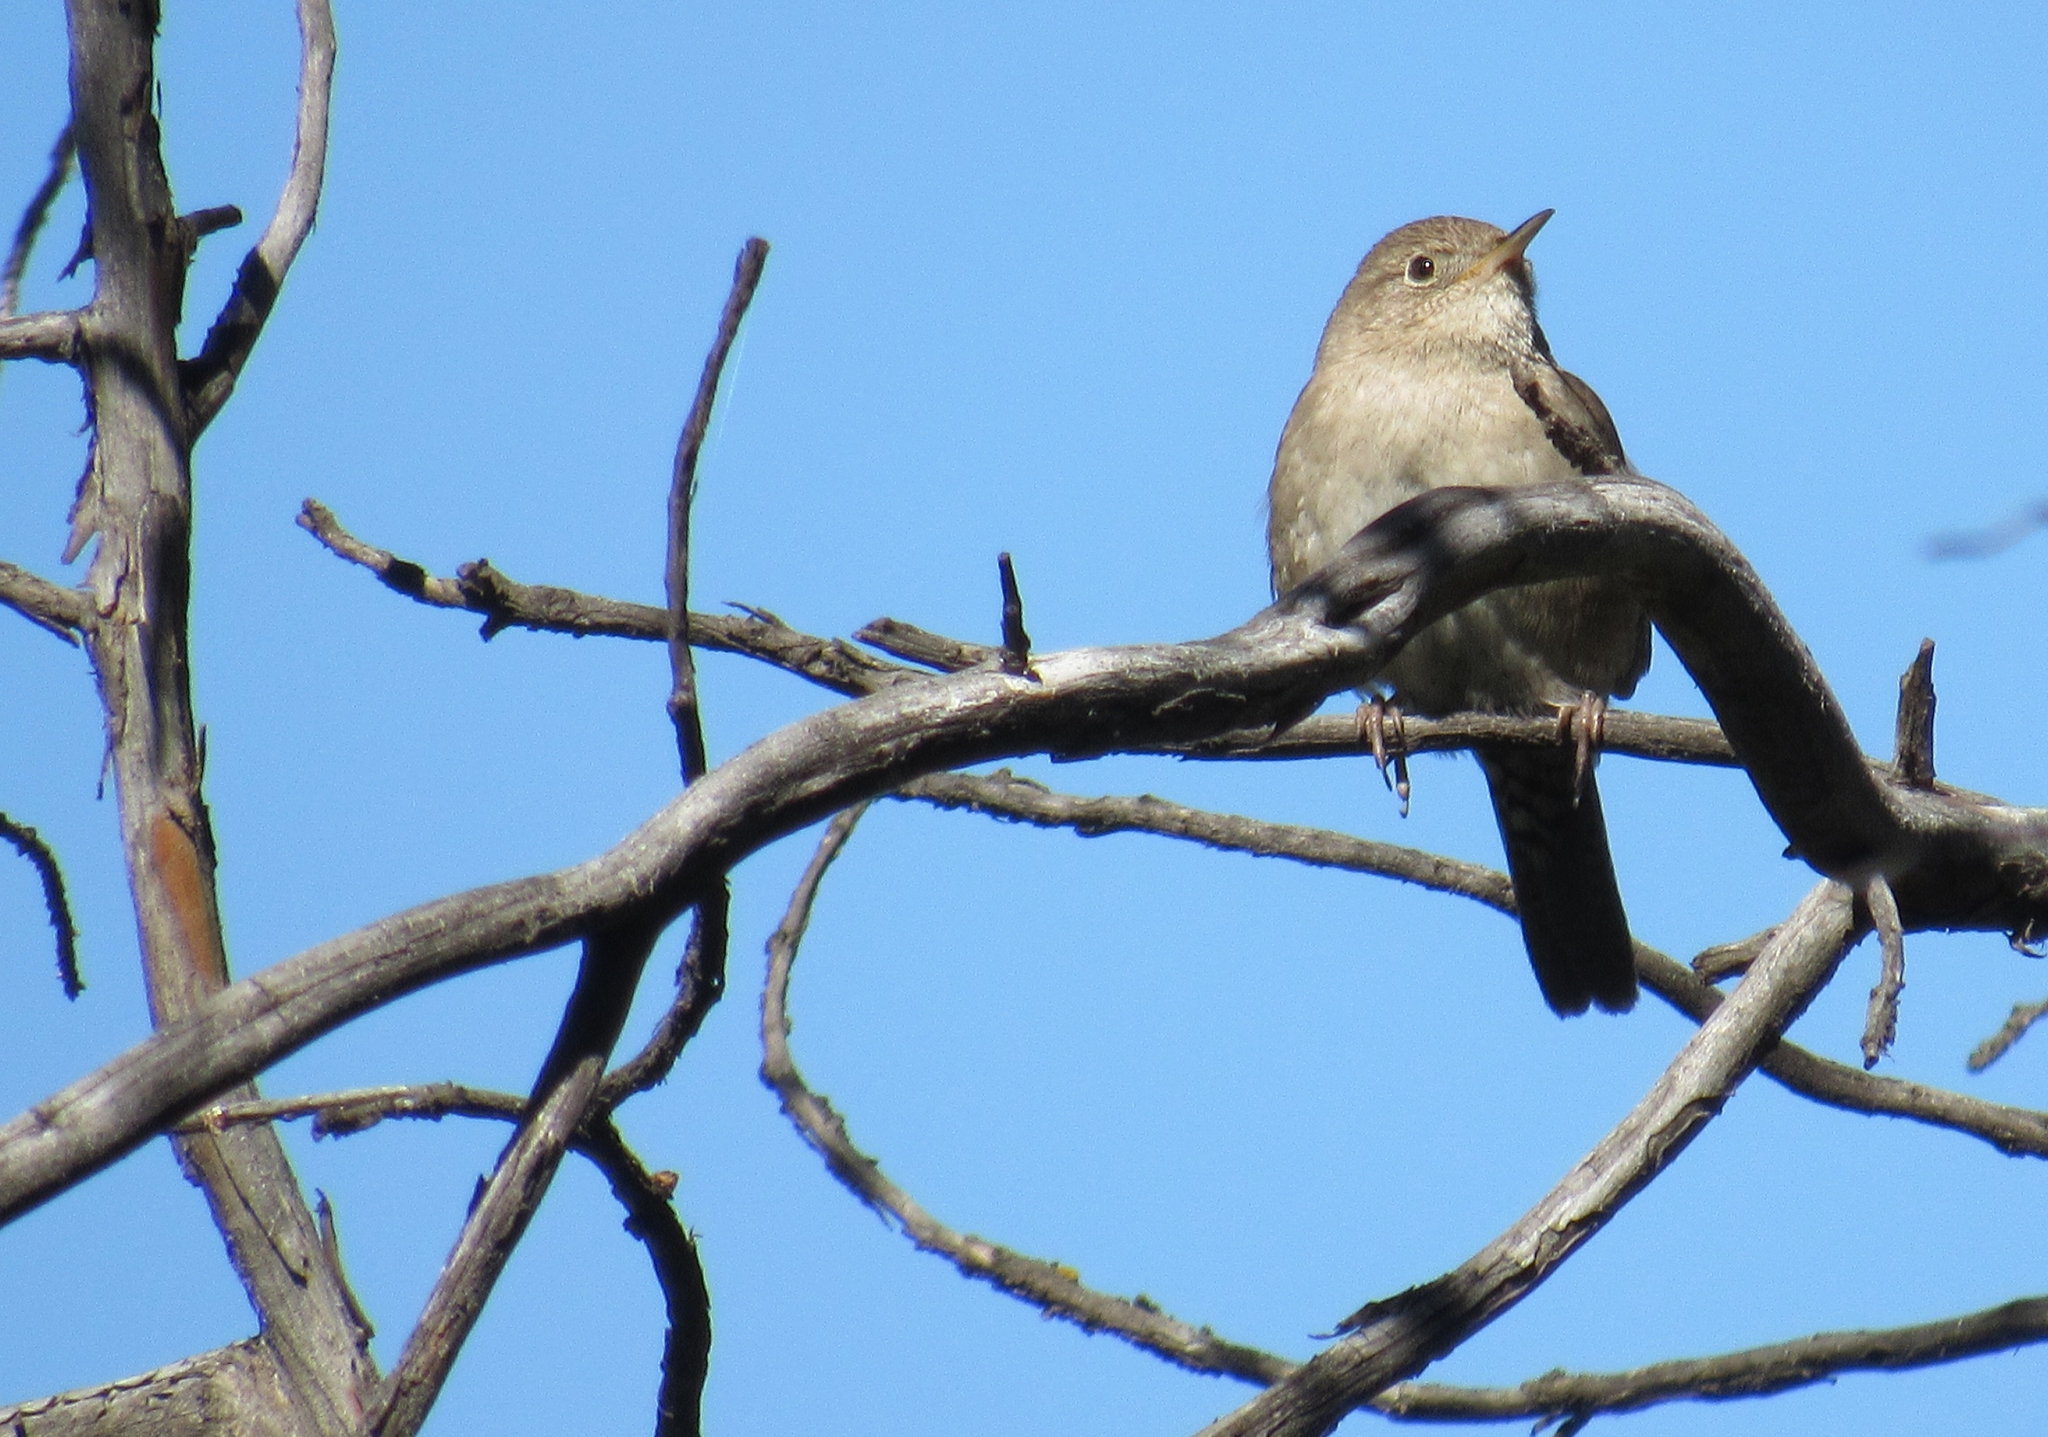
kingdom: Animalia
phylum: Chordata
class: Aves
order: Passeriformes
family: Troglodytidae
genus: Troglodytes
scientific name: Troglodytes aedon
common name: House wren
